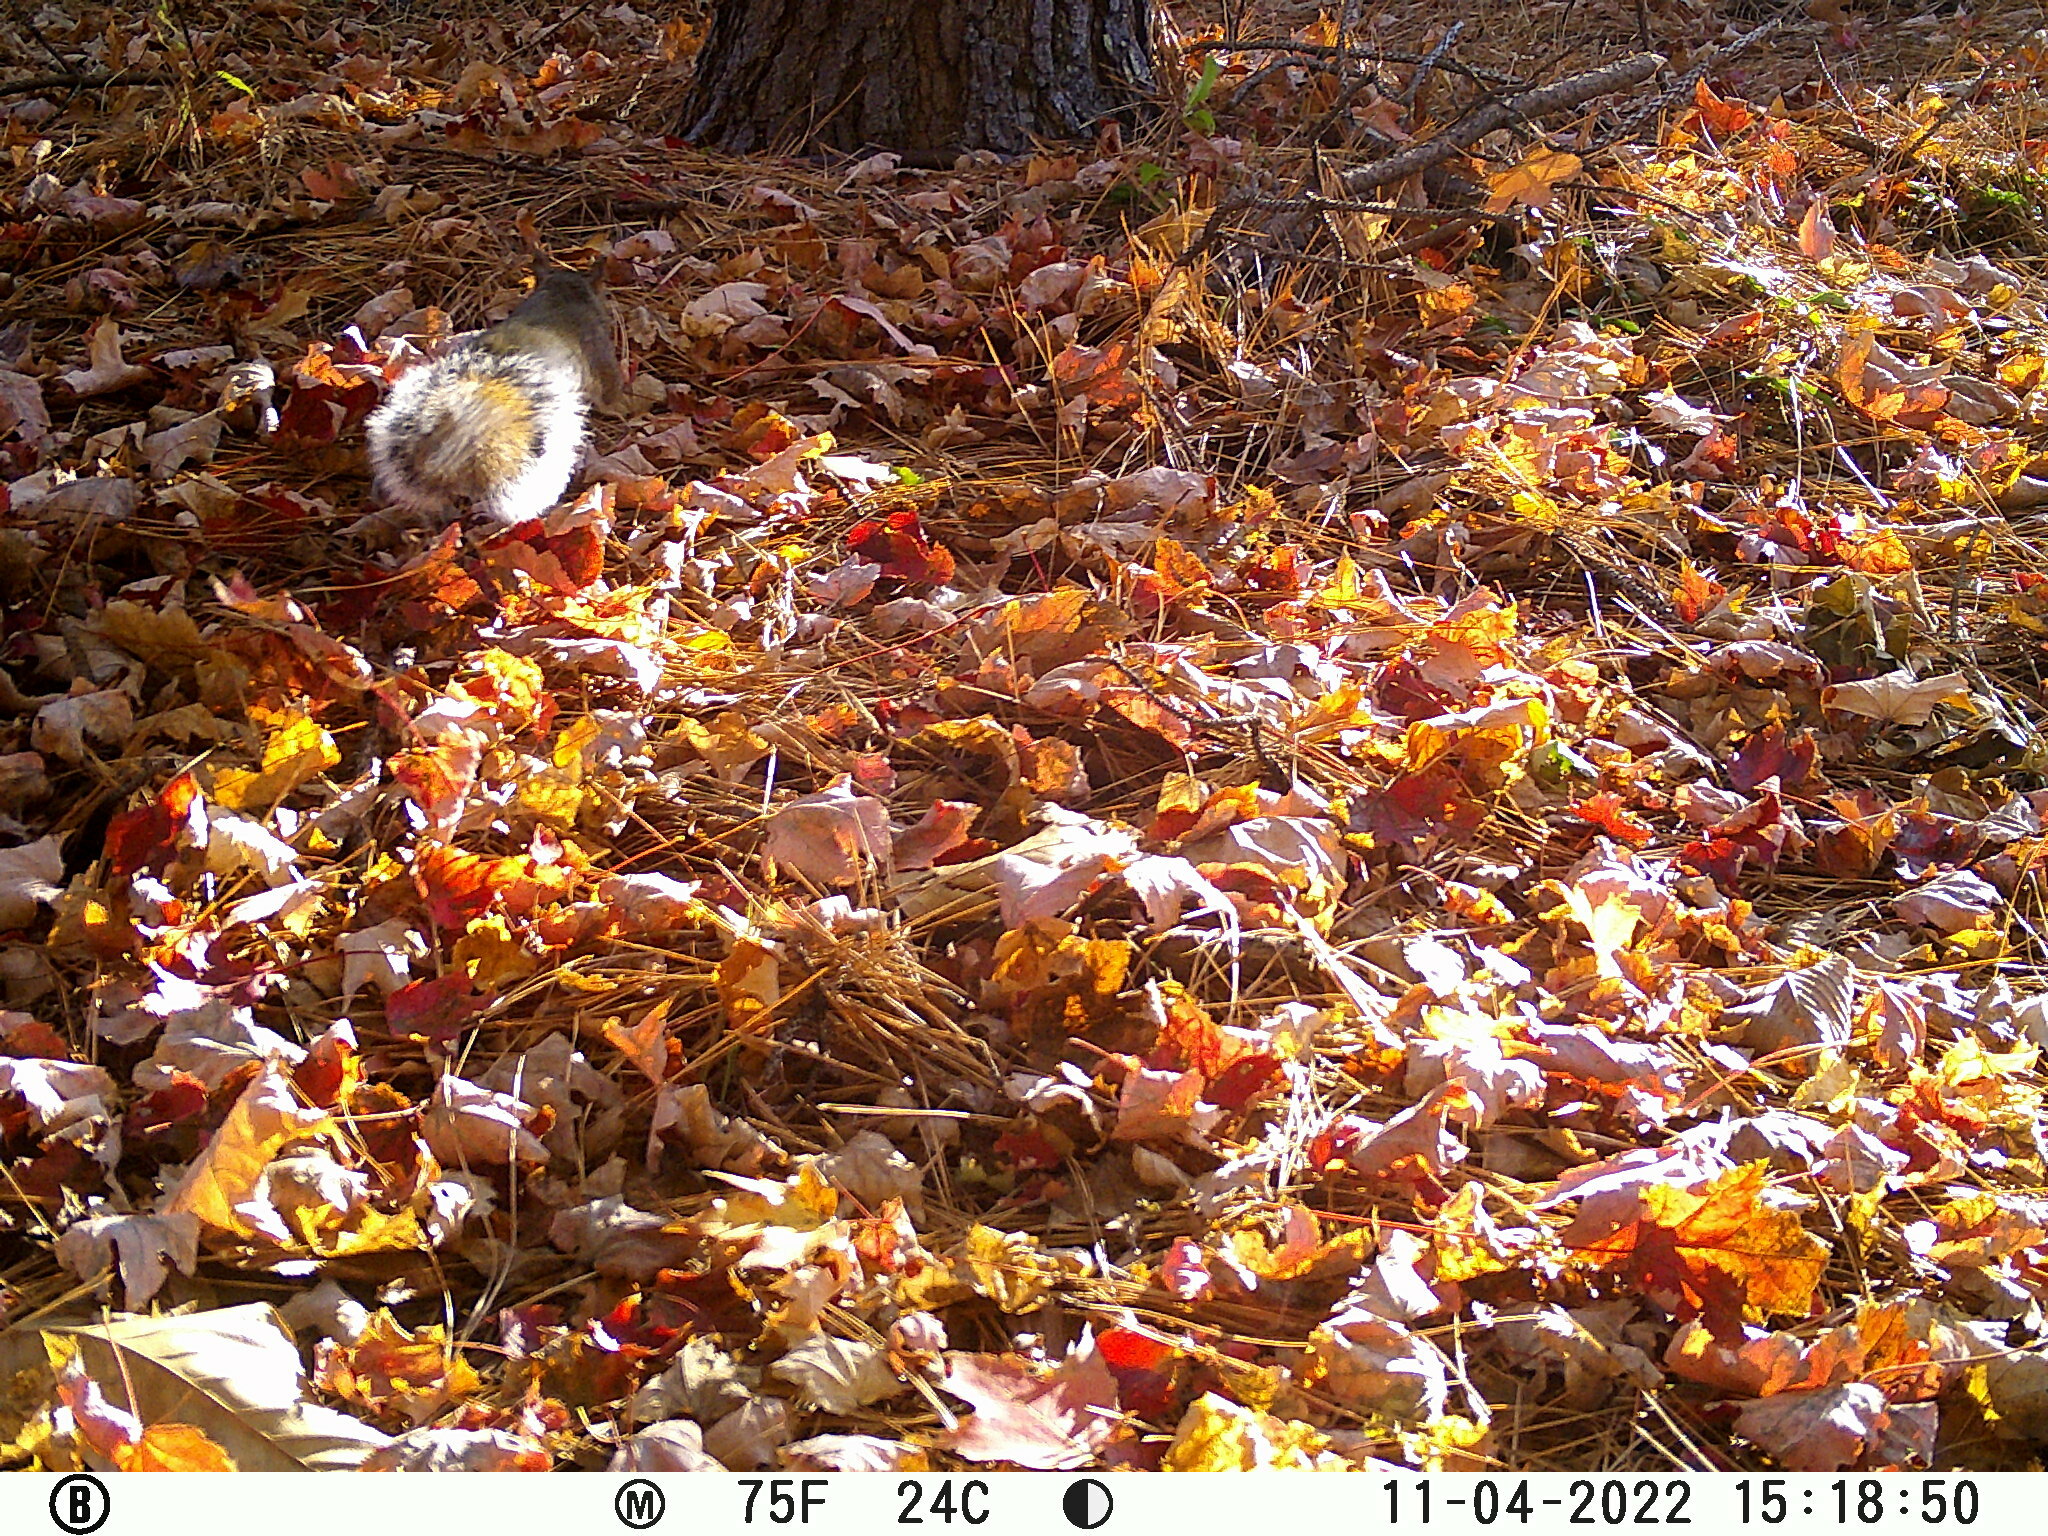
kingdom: Animalia
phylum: Chordata
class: Mammalia
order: Rodentia
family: Sciuridae
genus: Sciurus
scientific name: Sciurus carolinensis
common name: Eastern gray squirrel
